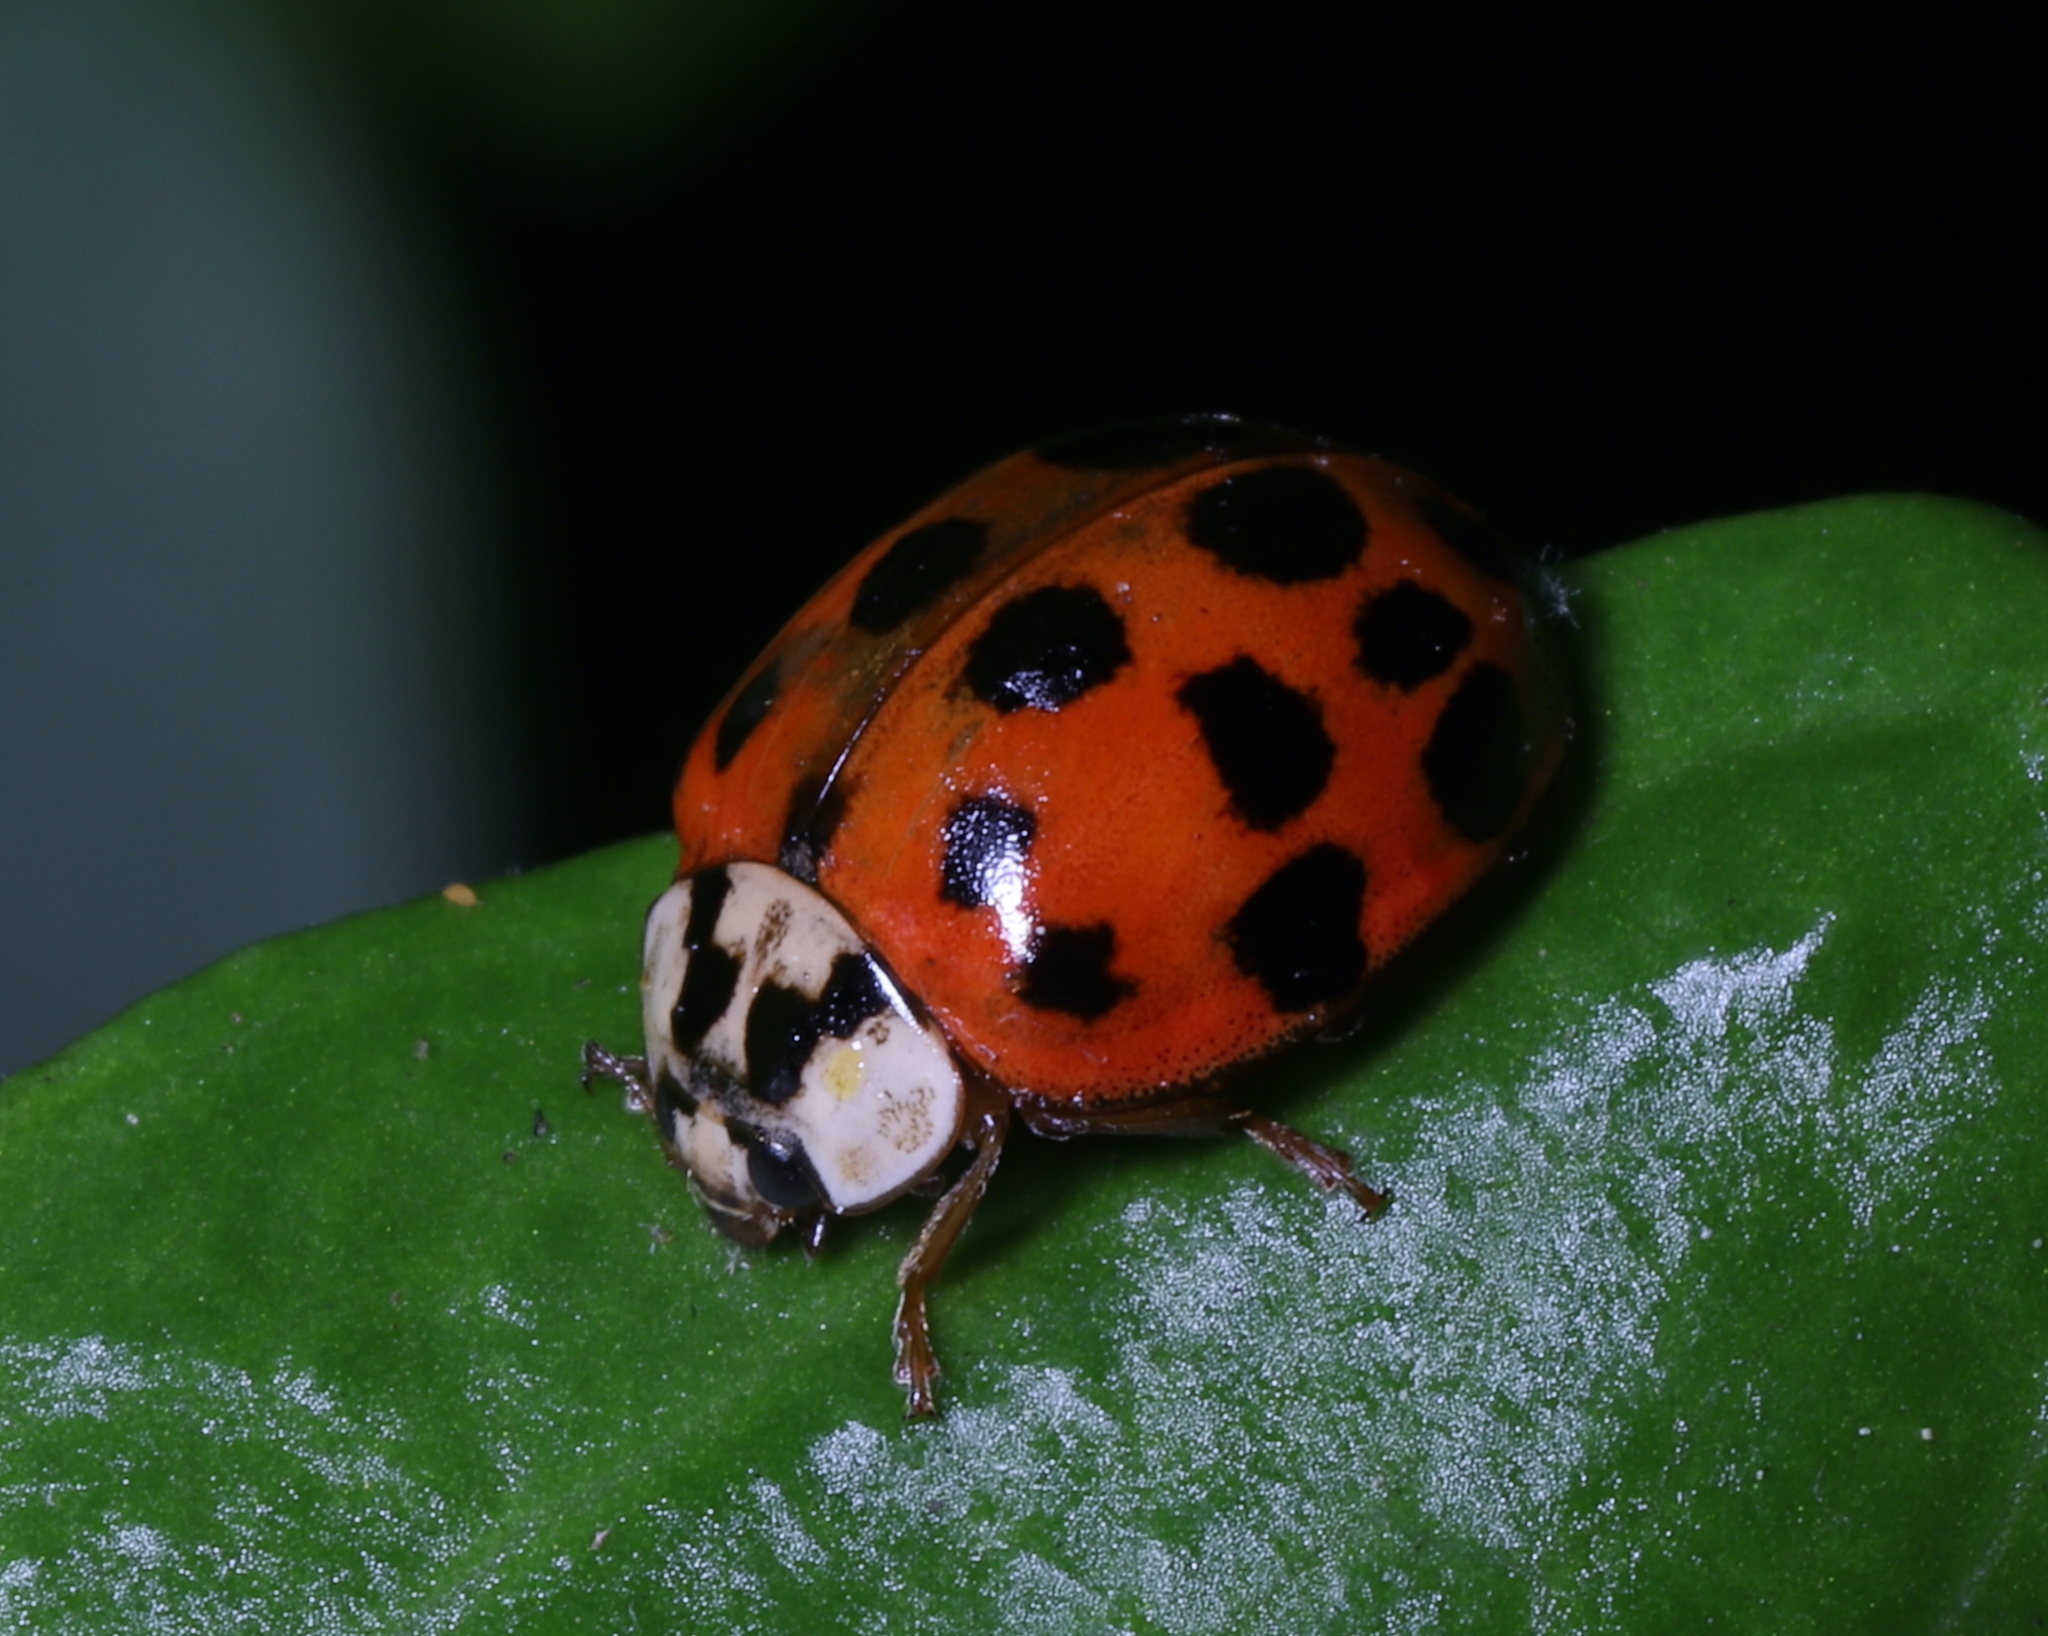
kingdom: Animalia
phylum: Arthropoda
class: Insecta
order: Coleoptera
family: Coccinellidae
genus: Harmonia
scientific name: Harmonia axyridis
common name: Harlequin ladybird
